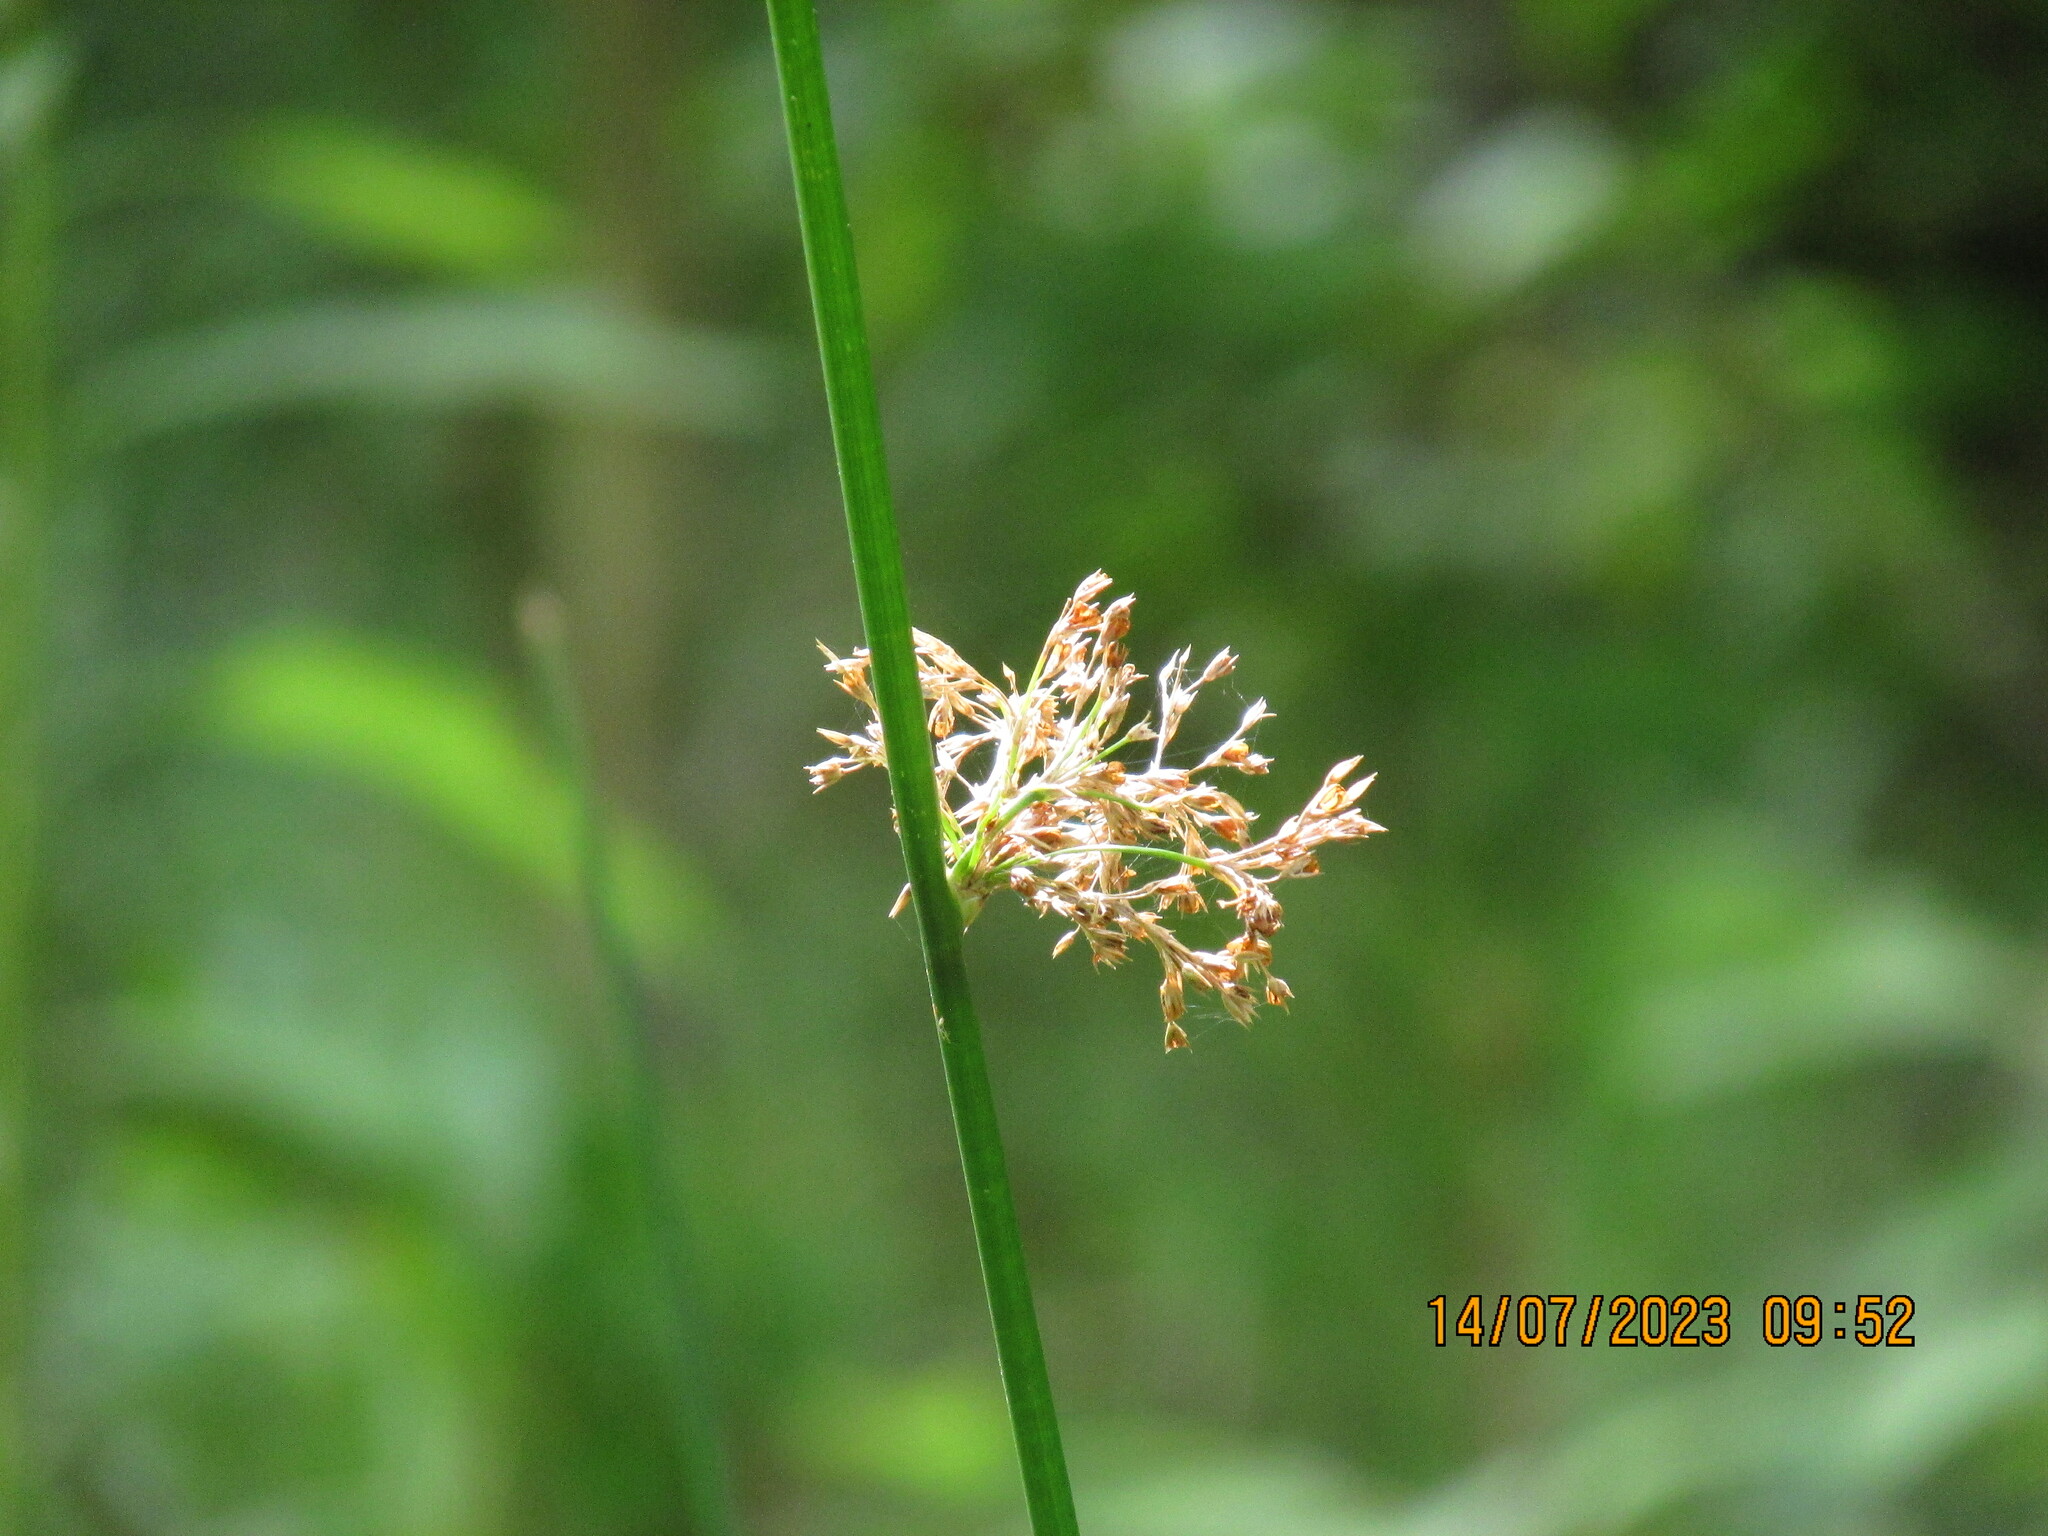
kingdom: Plantae
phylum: Tracheophyta
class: Liliopsida
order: Poales
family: Juncaceae
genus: Juncus
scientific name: Juncus effusus
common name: Soft rush
